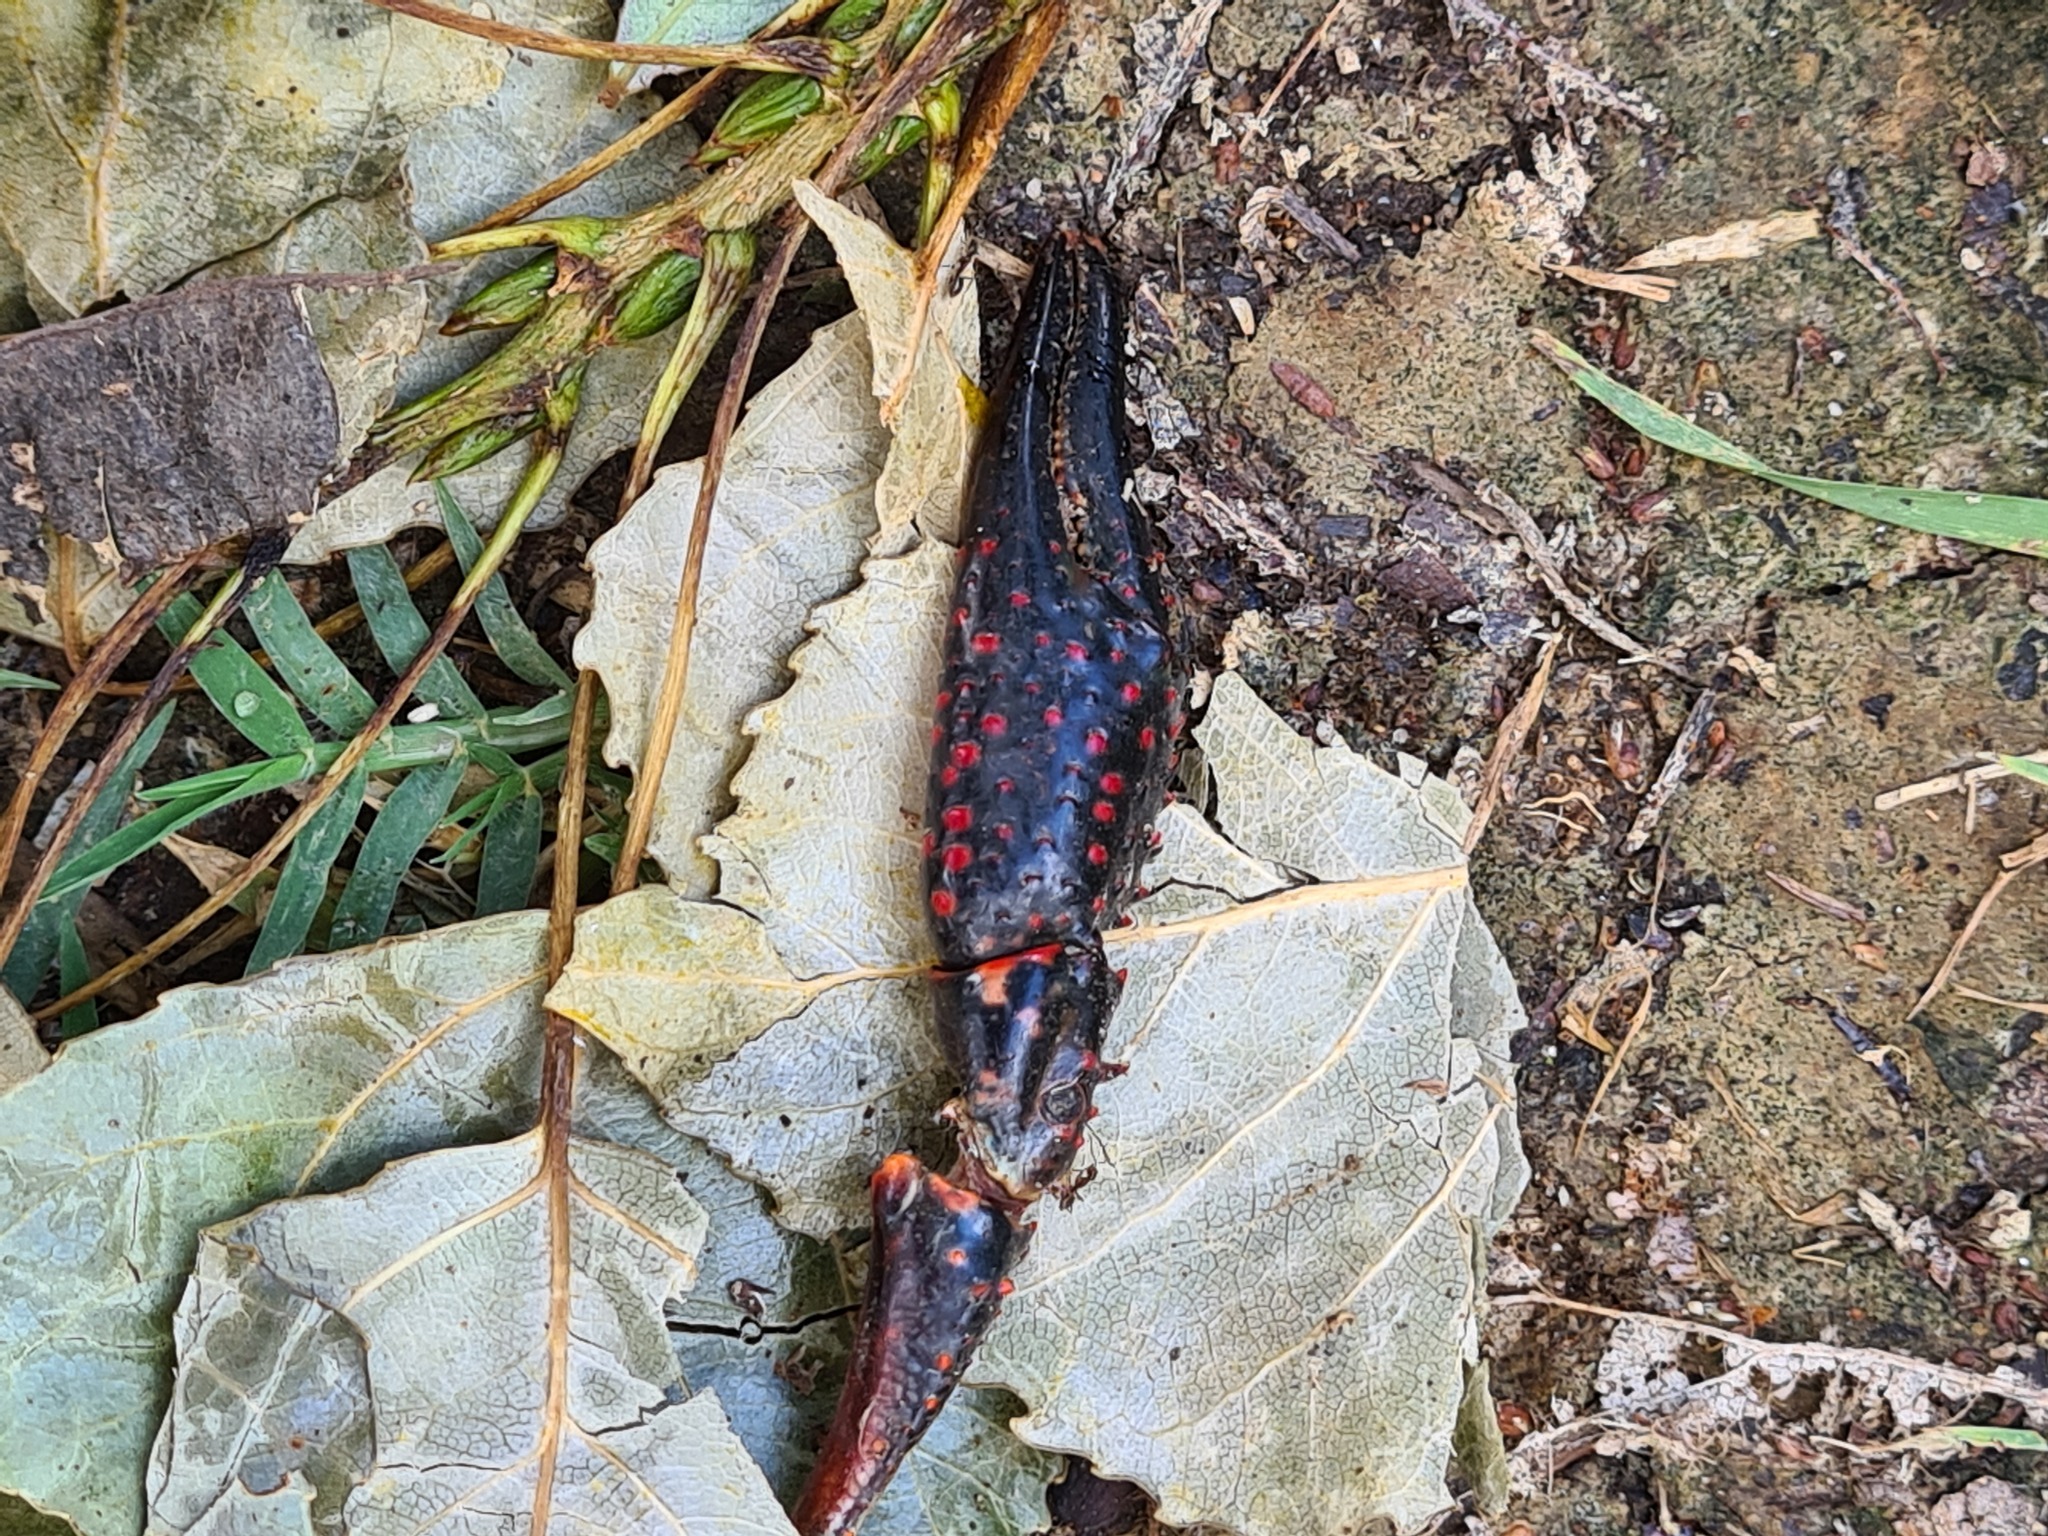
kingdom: Animalia
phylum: Arthropoda
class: Malacostraca
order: Decapoda
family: Cambaridae
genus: Procambarus
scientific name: Procambarus clarkii
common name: Red swamp crayfish
